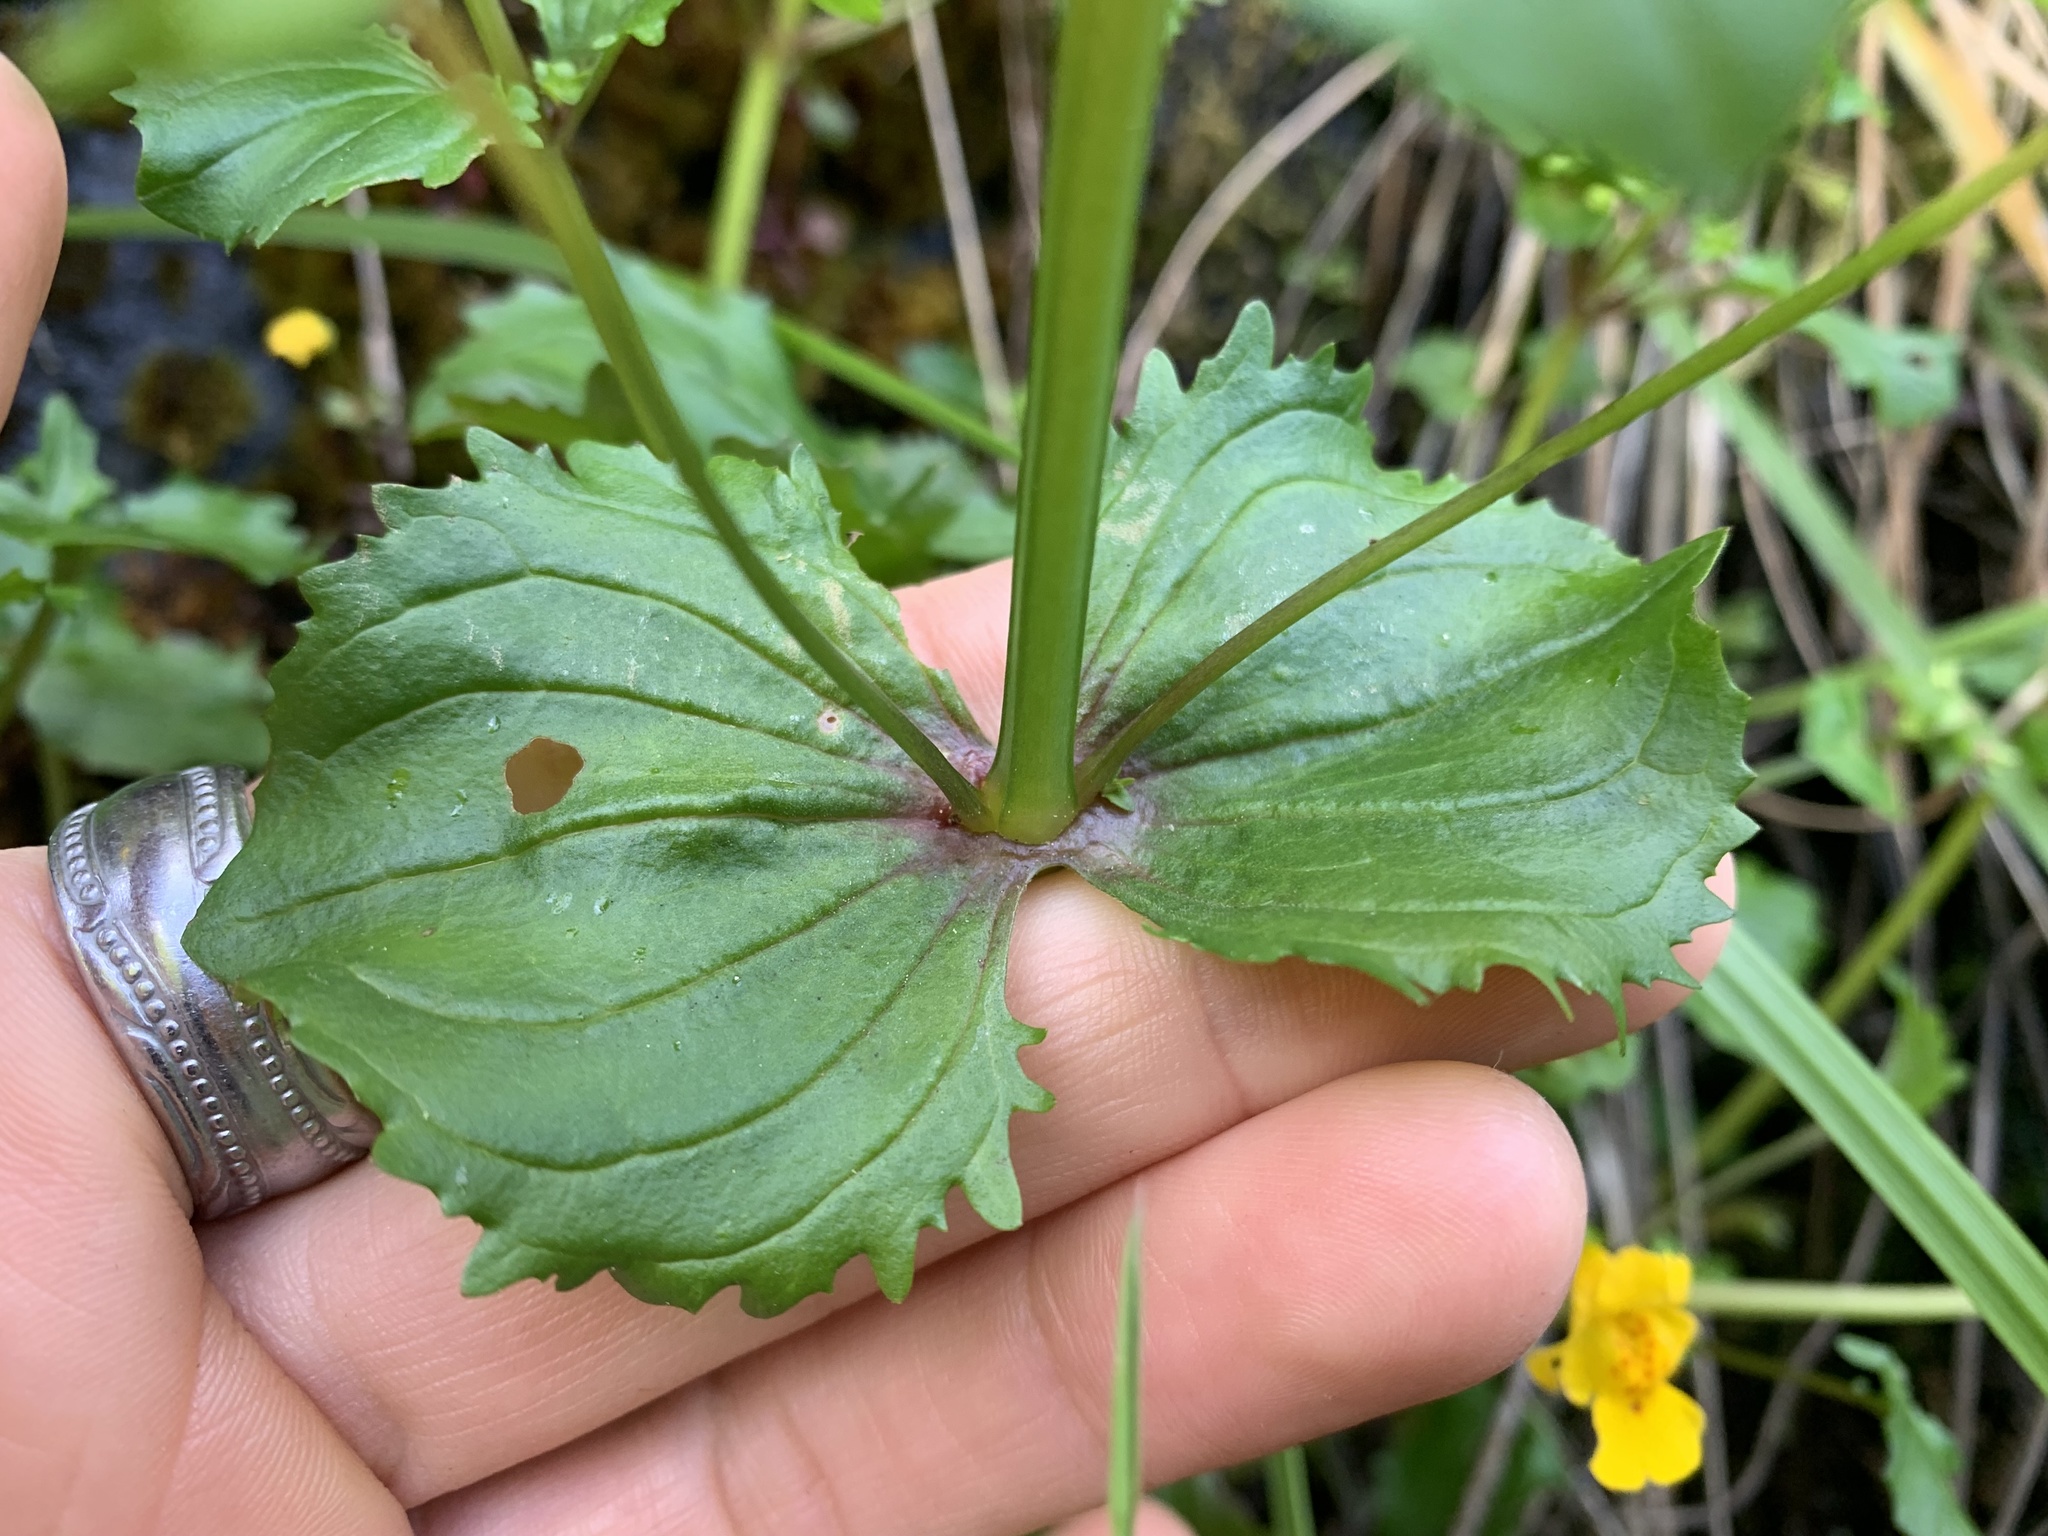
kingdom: Plantae
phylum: Tracheophyta
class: Magnoliopsida
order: Lamiales
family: Phrymaceae
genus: Erythranthe
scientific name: Erythranthe guttata
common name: Monkeyflower
